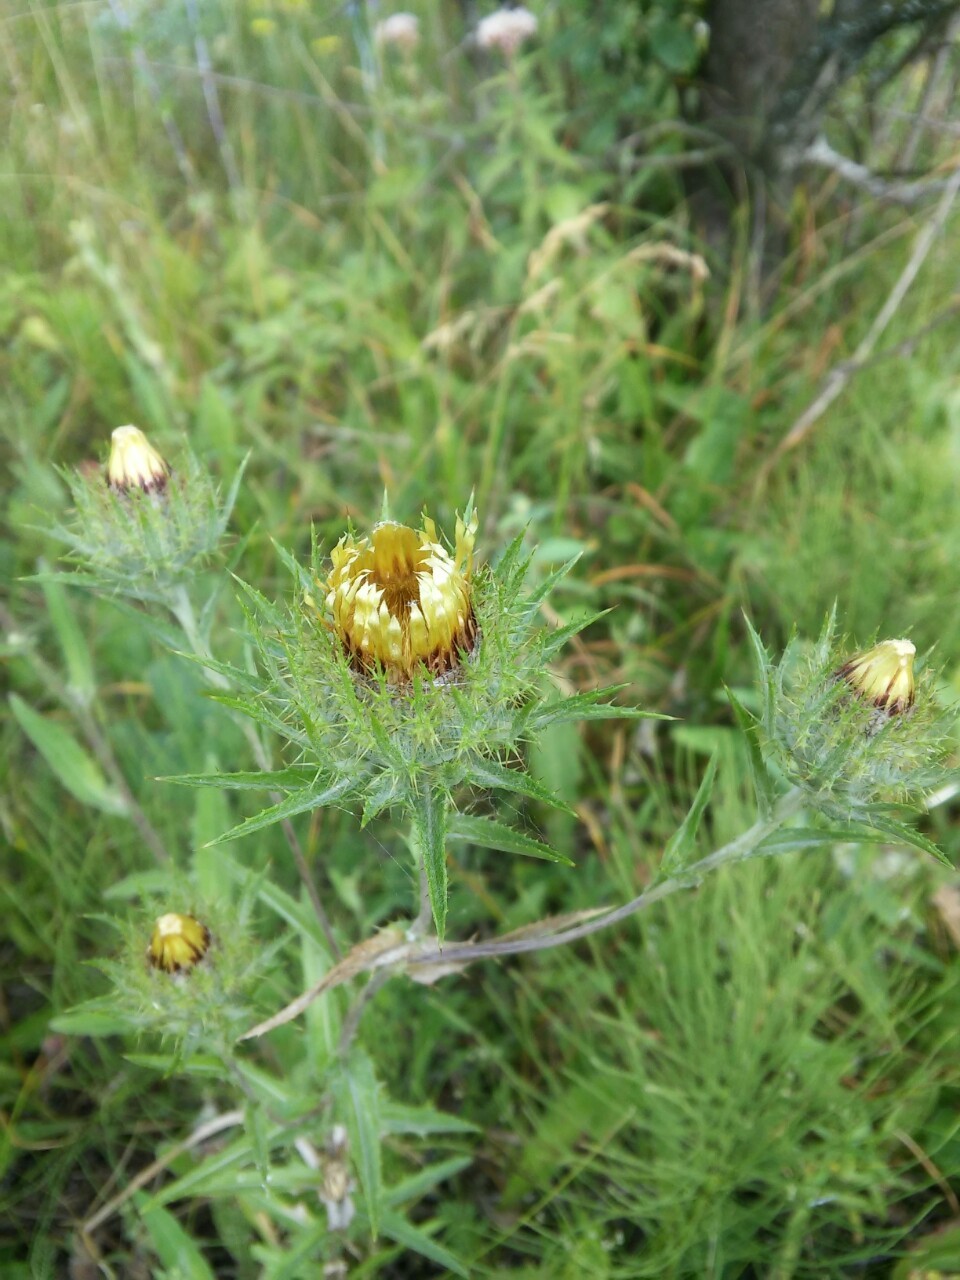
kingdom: Plantae
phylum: Tracheophyta
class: Magnoliopsida
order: Asterales
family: Asteraceae
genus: Carlina
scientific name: Carlina biebersteinii
